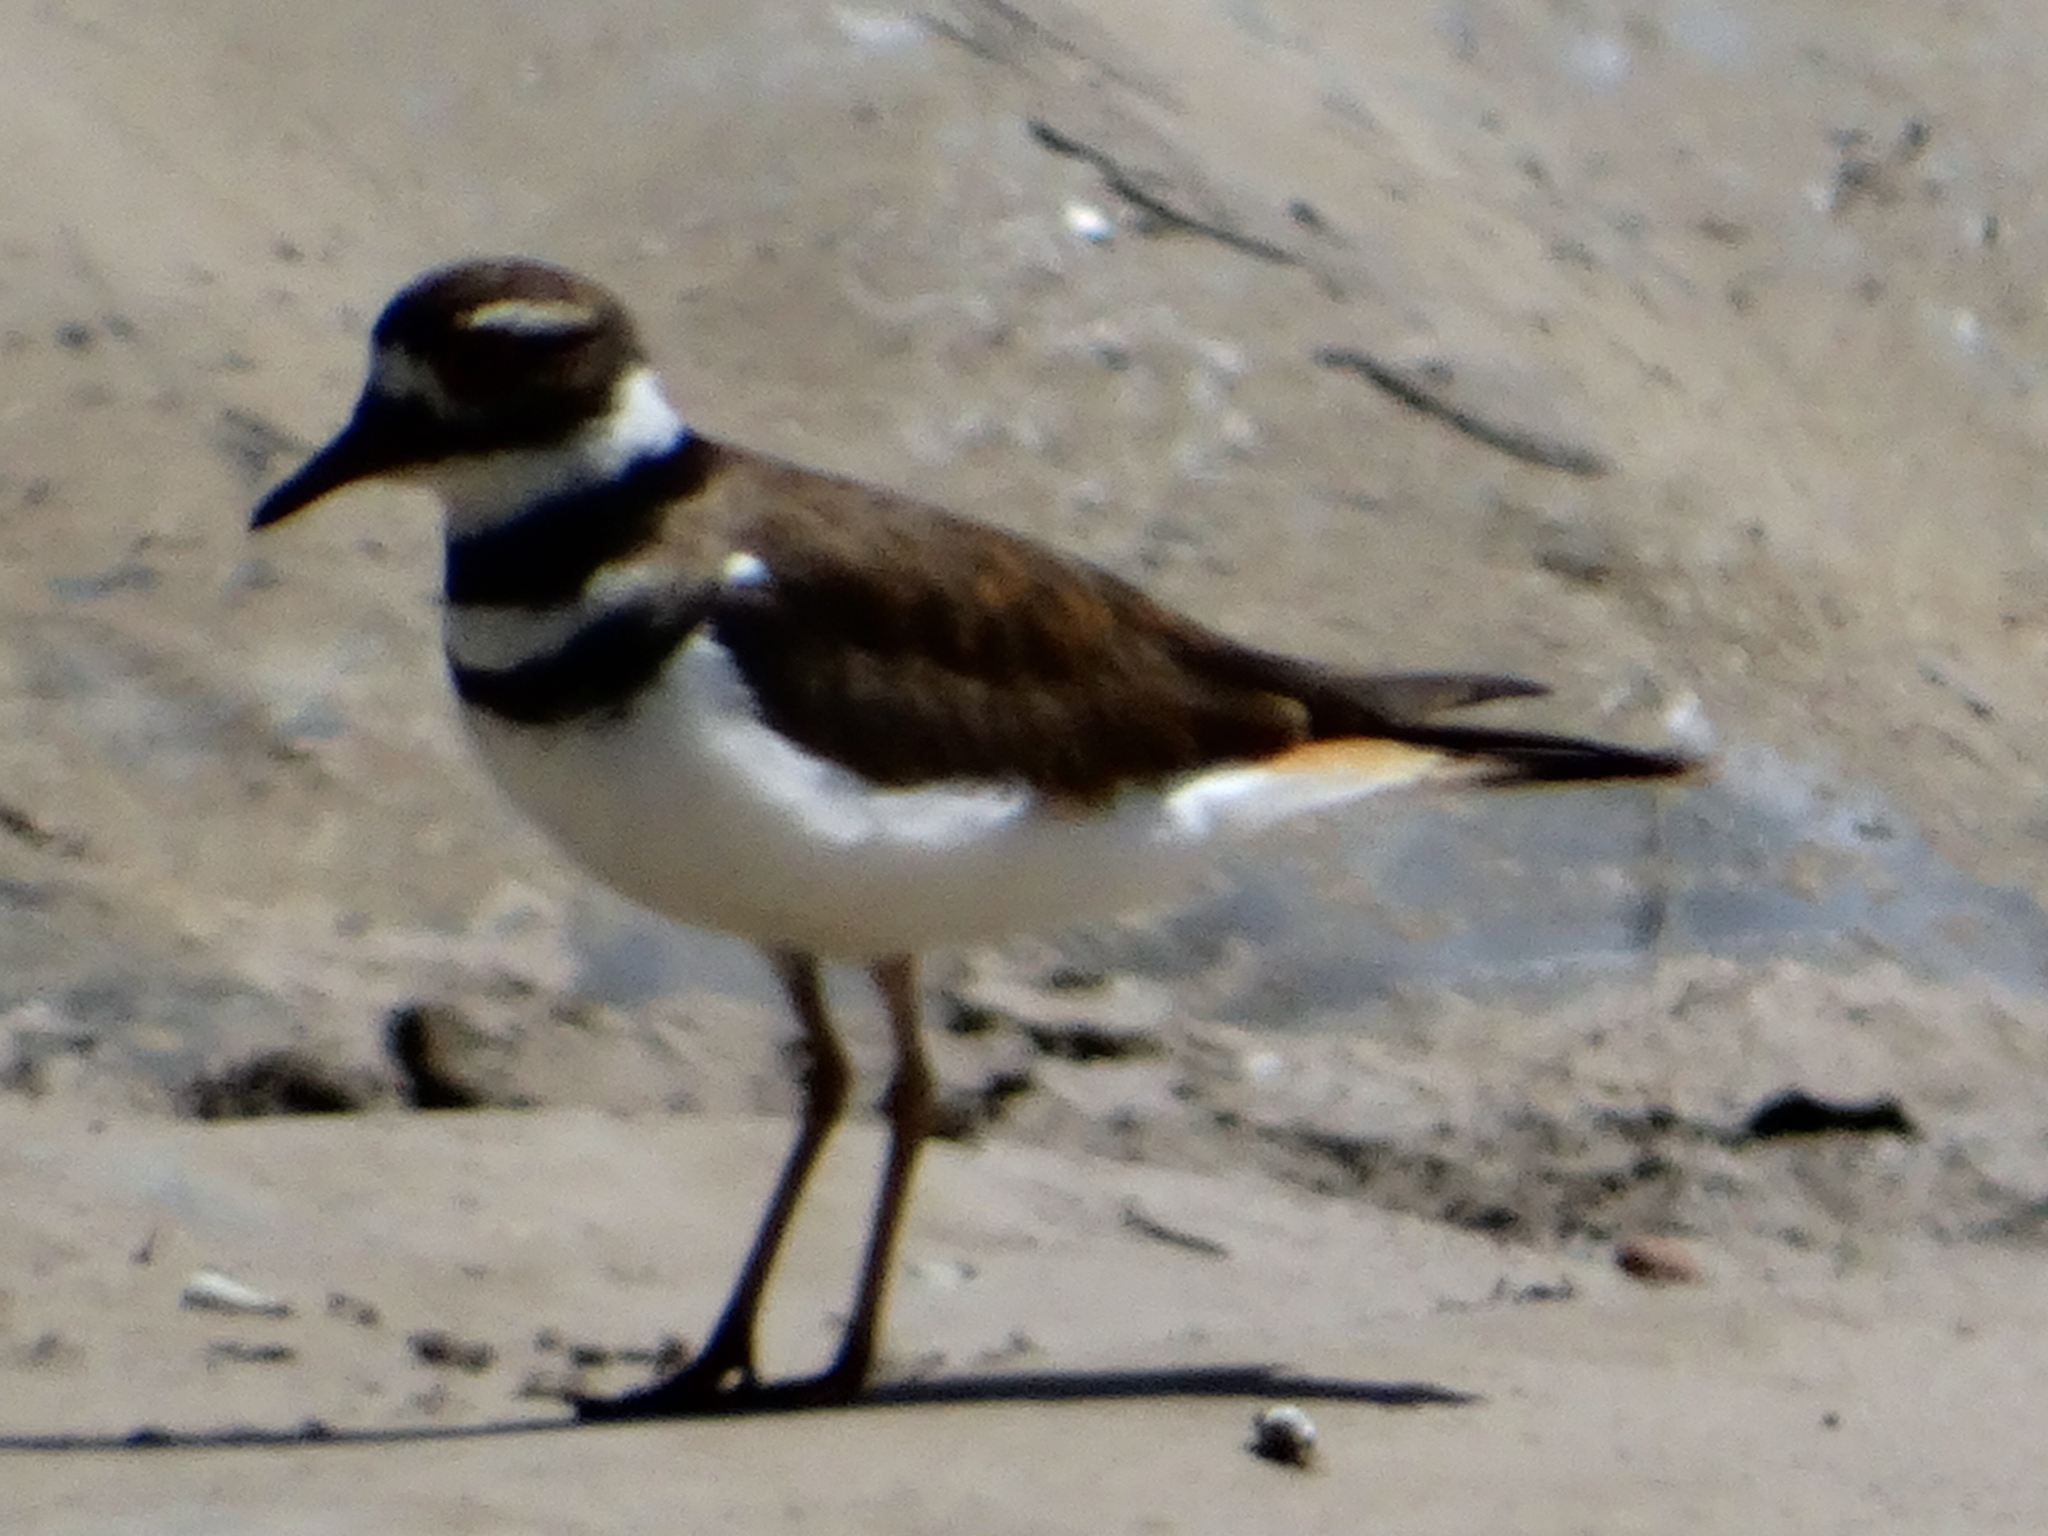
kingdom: Animalia
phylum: Chordata
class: Aves
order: Charadriiformes
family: Charadriidae
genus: Charadrius
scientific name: Charadrius vociferus
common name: Killdeer
